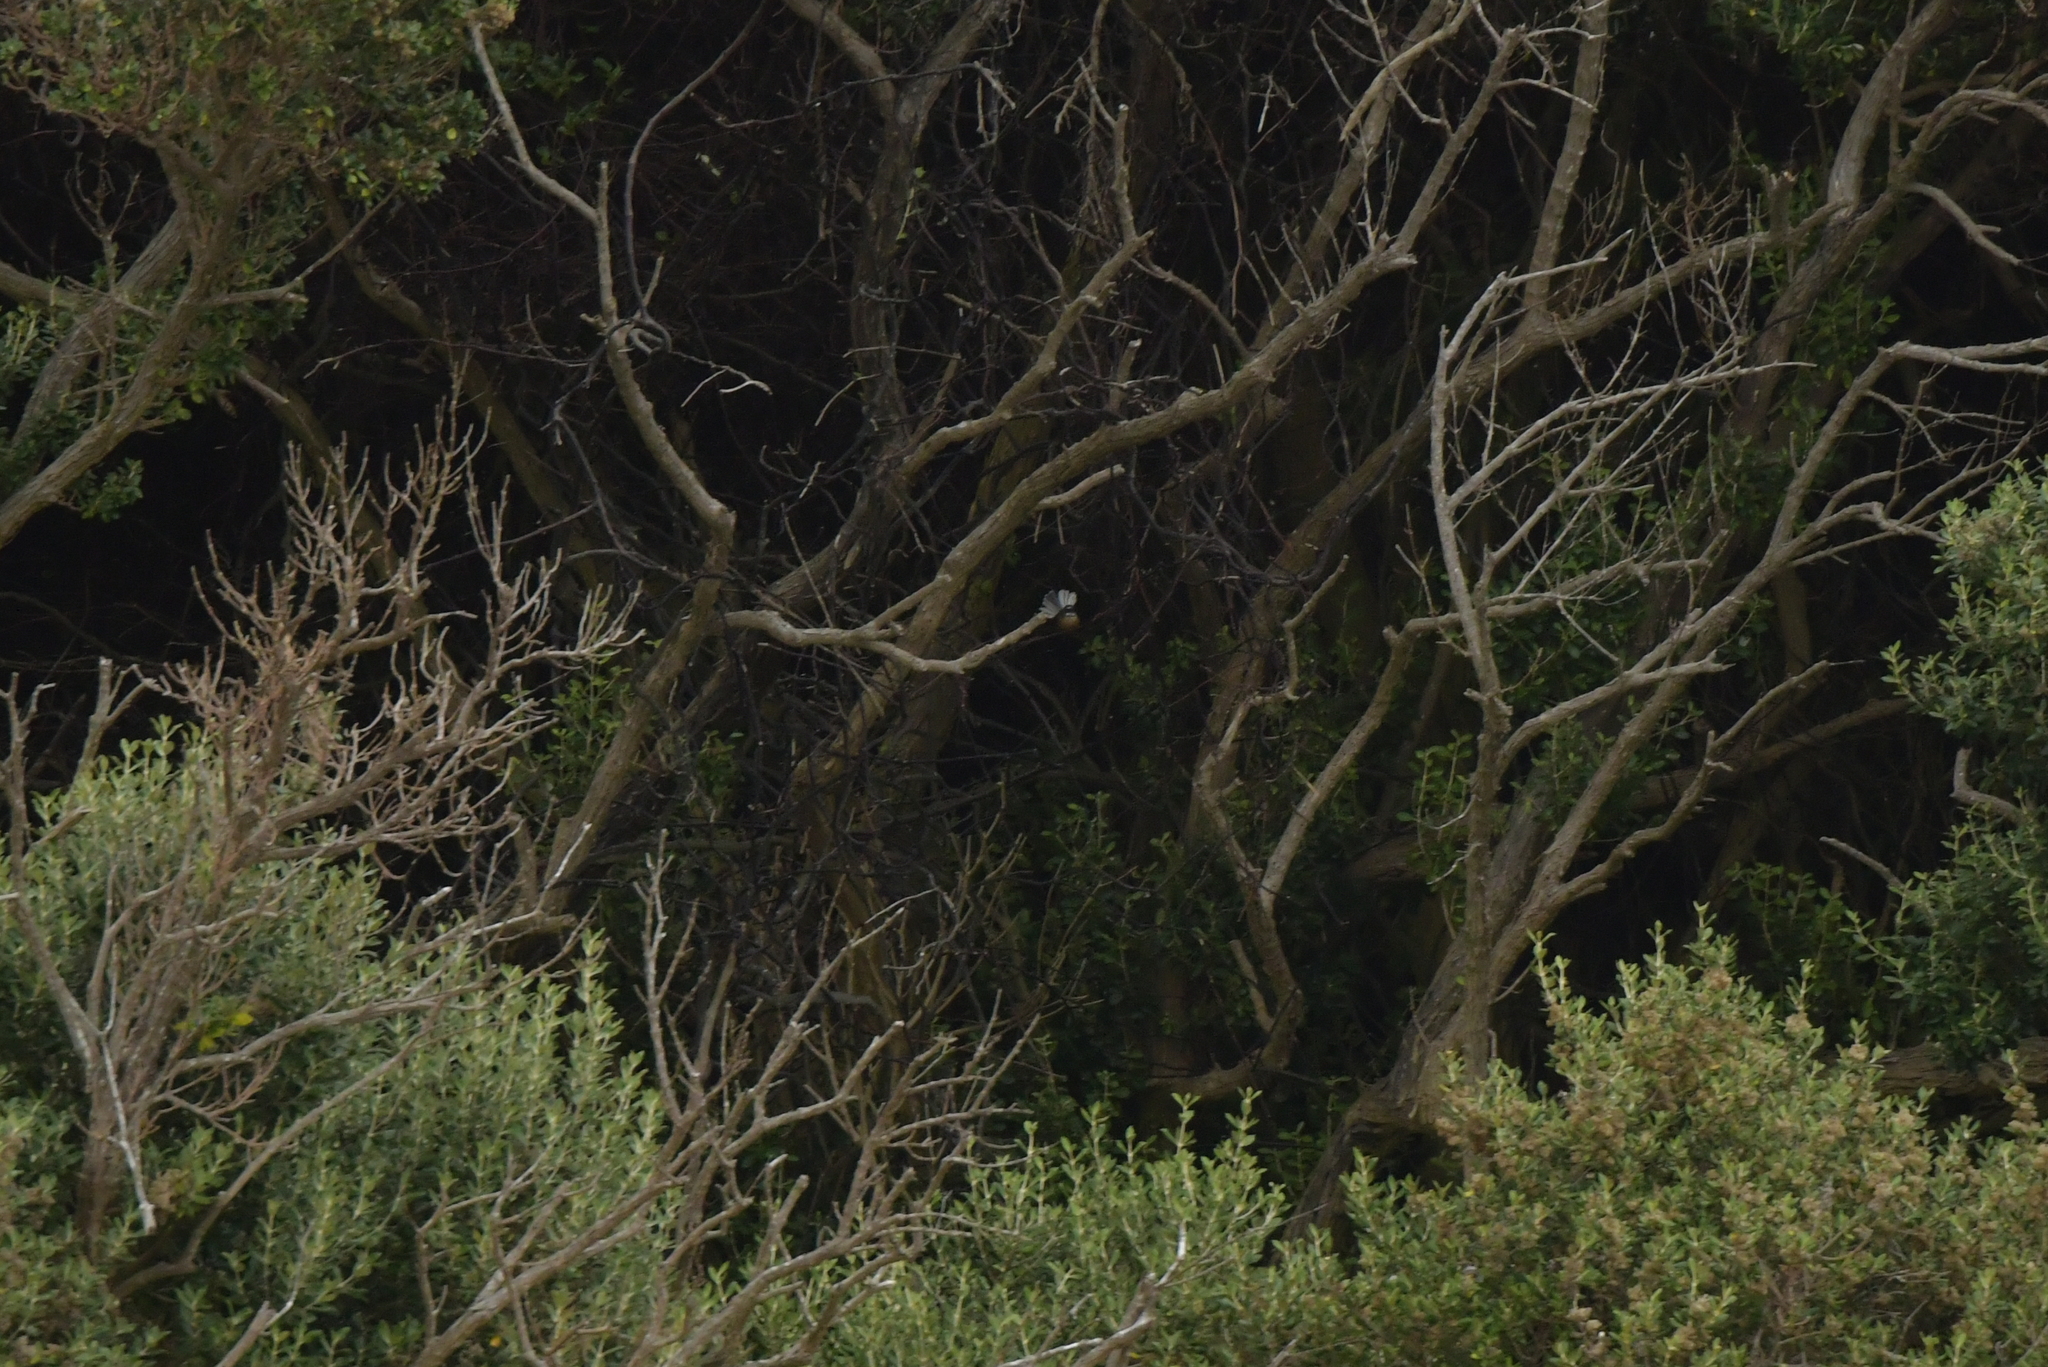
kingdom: Animalia
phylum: Chordata
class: Aves
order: Passeriformes
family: Rhipiduridae
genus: Rhipidura
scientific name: Rhipidura fuliginosa
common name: New zealand fantail
